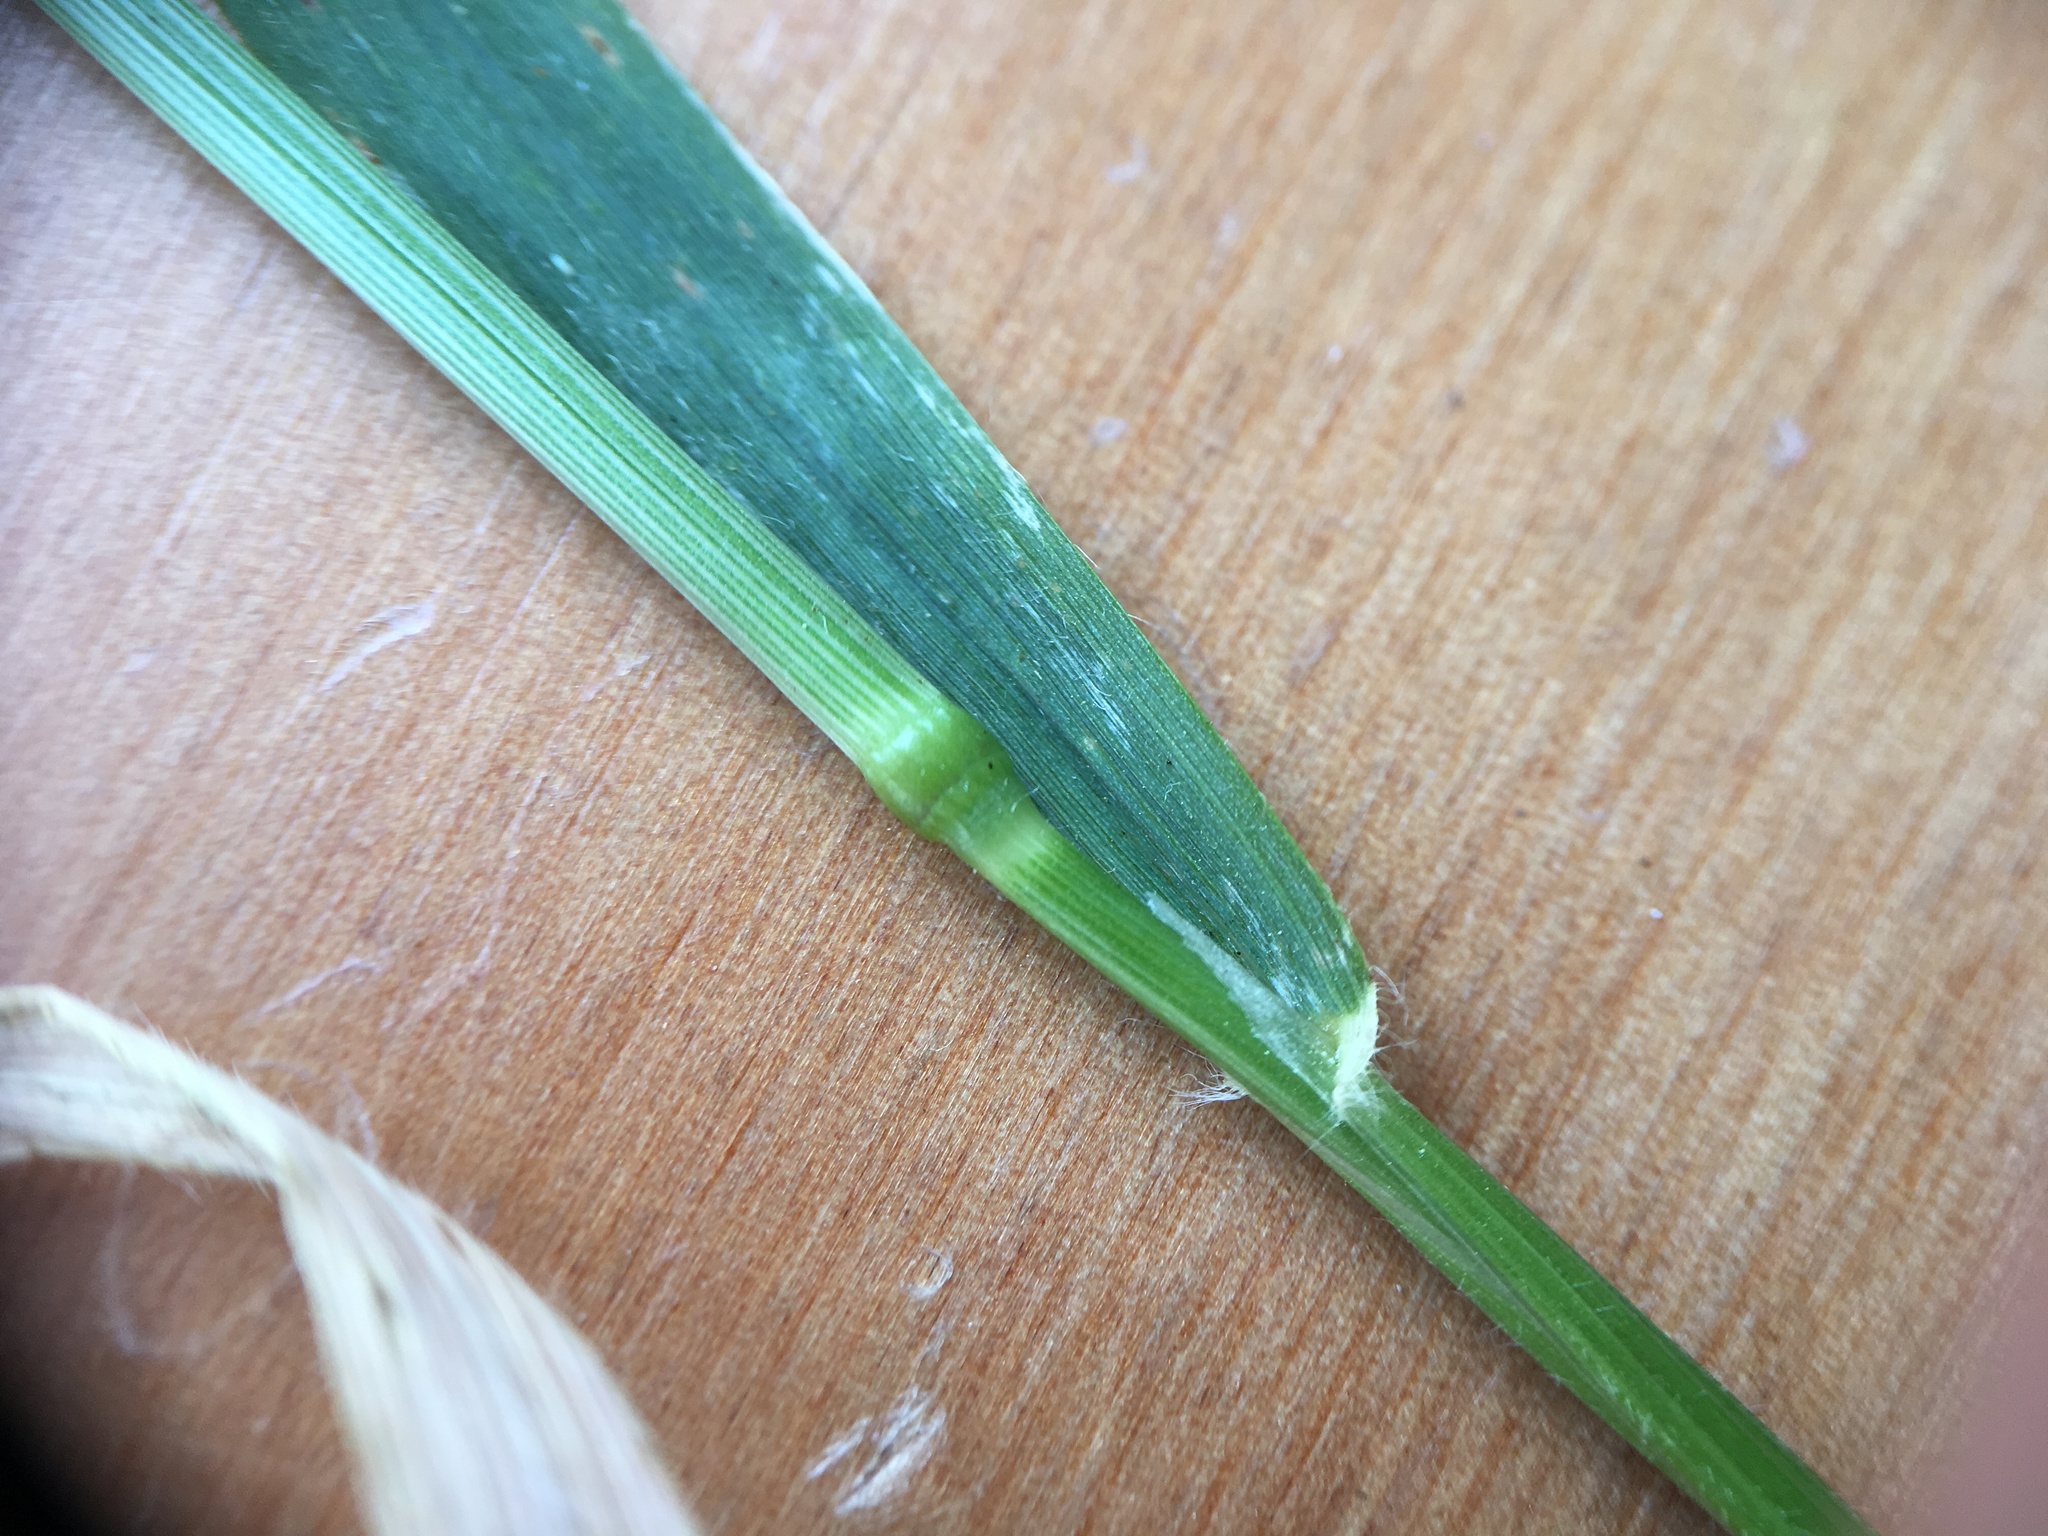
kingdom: Plantae
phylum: Tracheophyta
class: Liliopsida
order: Poales
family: Poaceae
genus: Anthoxanthum
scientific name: Anthoxanthum odoratum
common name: Sweet vernalgrass
